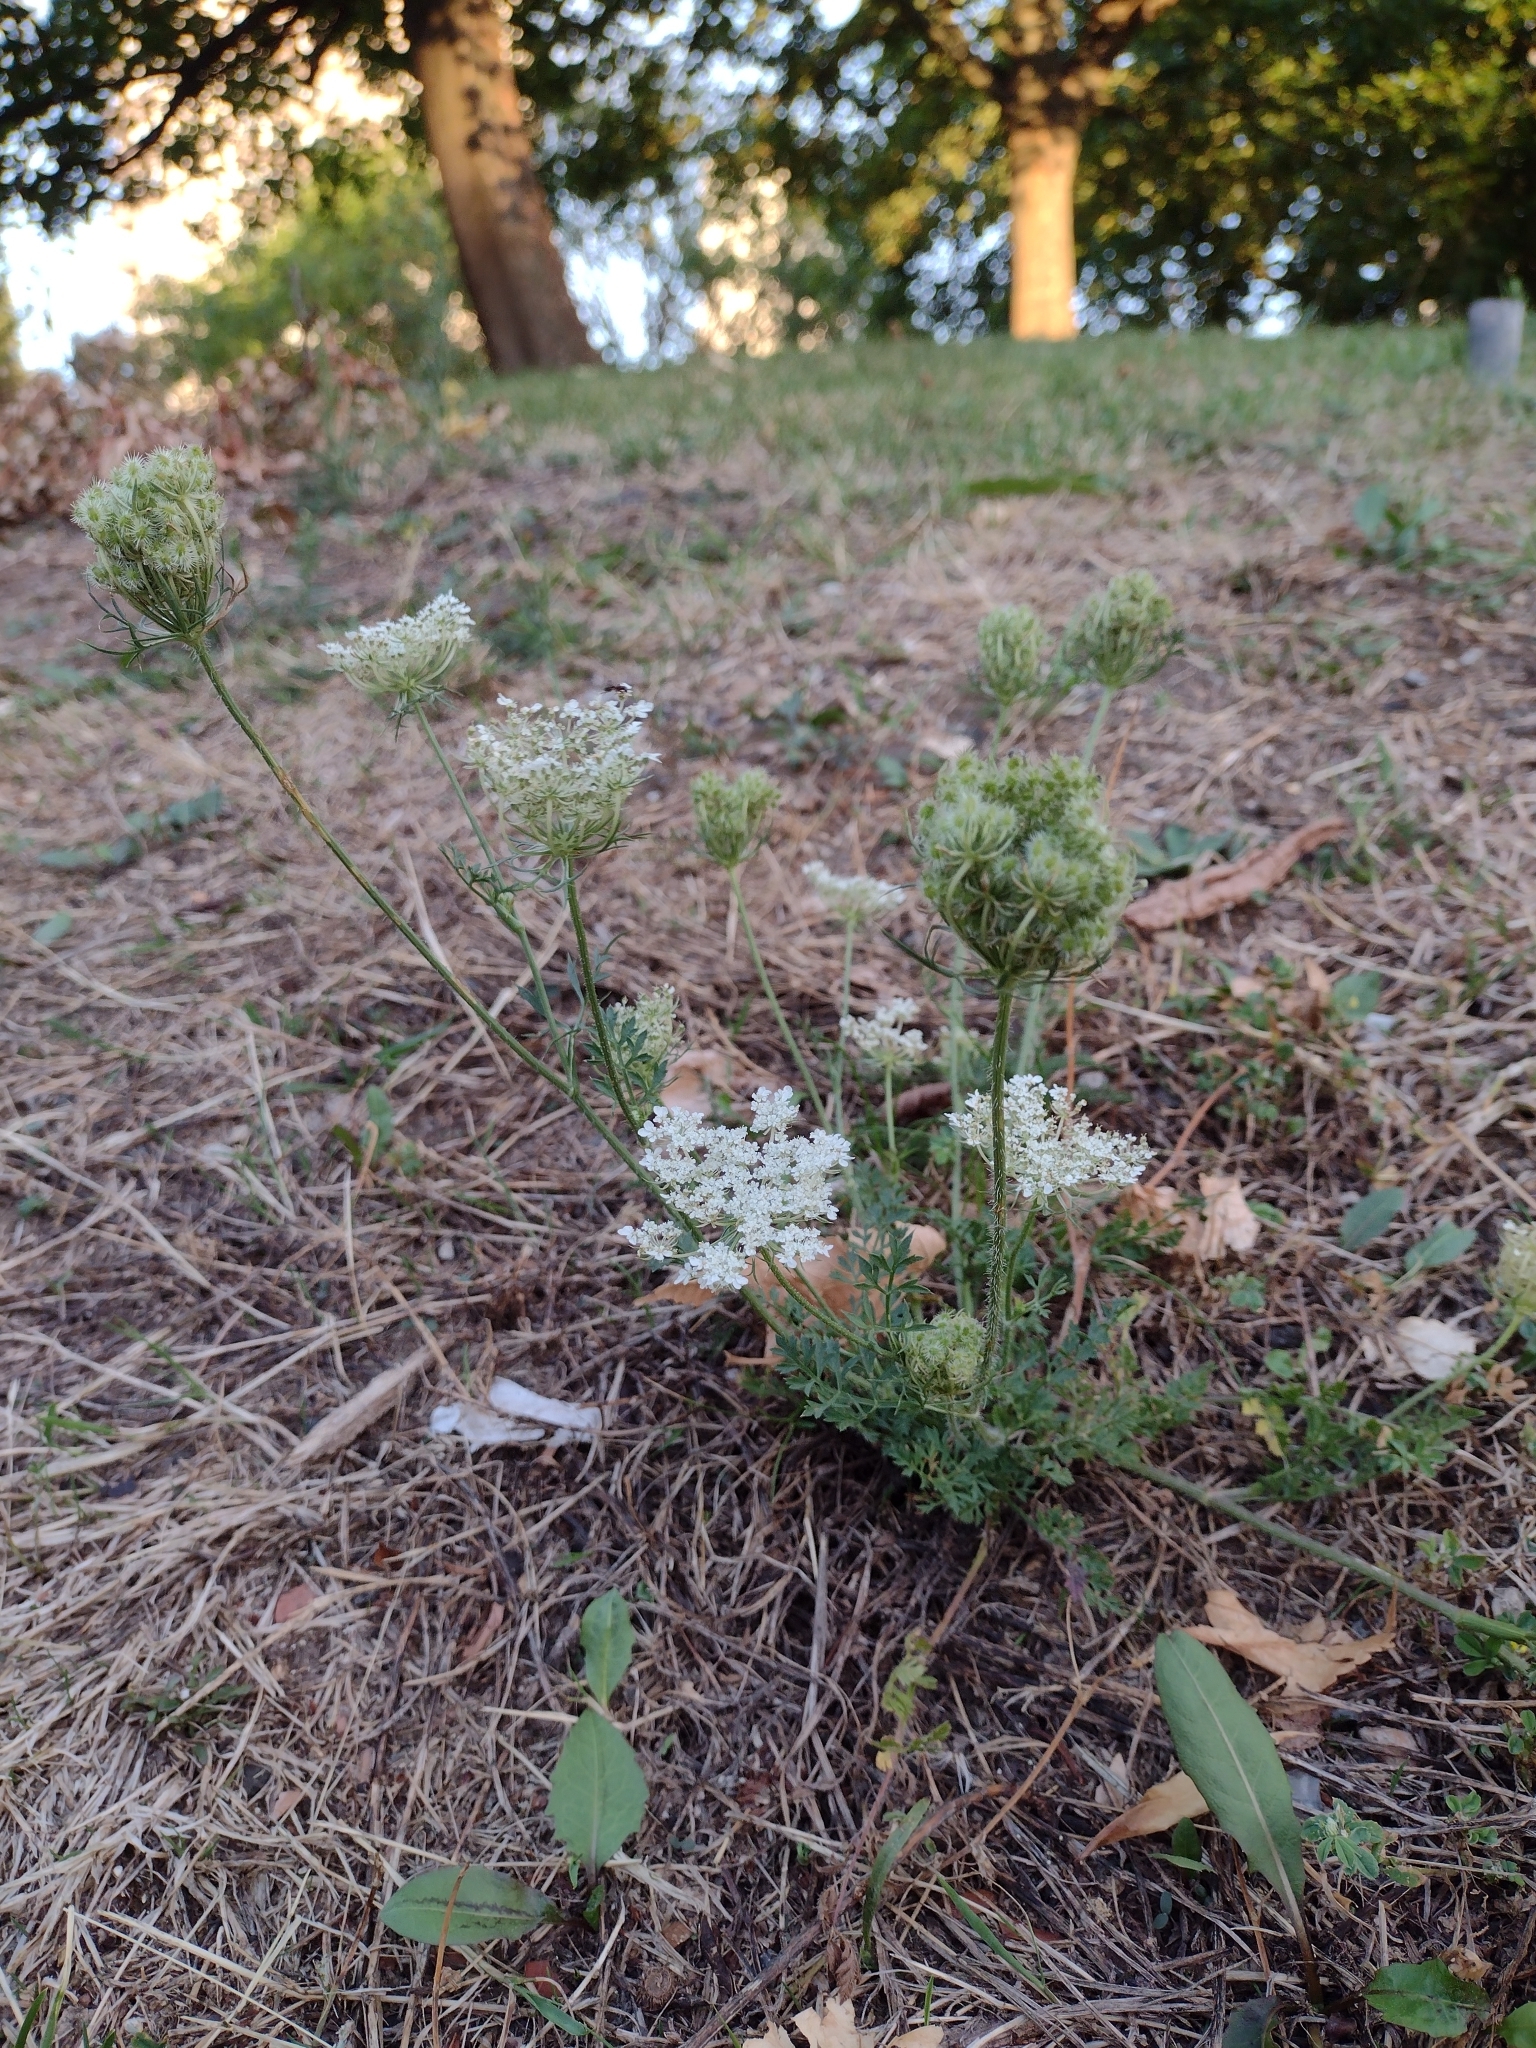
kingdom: Plantae
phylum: Tracheophyta
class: Magnoliopsida
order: Apiales
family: Apiaceae
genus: Daucus
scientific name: Daucus carota
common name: Wild carrot
